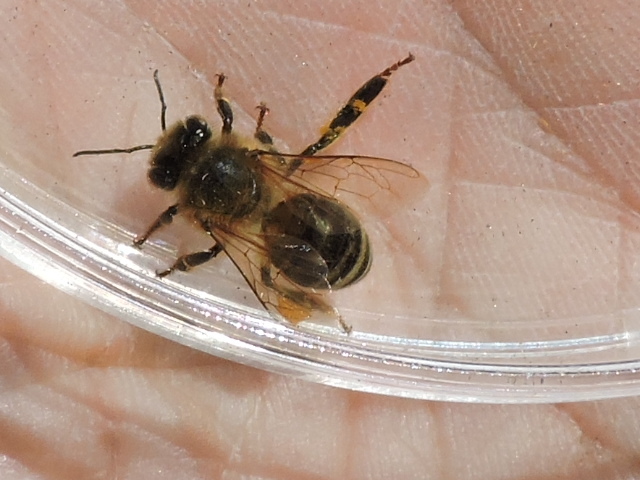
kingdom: Animalia
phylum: Arthropoda
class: Insecta
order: Hymenoptera
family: Apidae
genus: Apis
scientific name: Apis mellifera
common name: Honey bee
